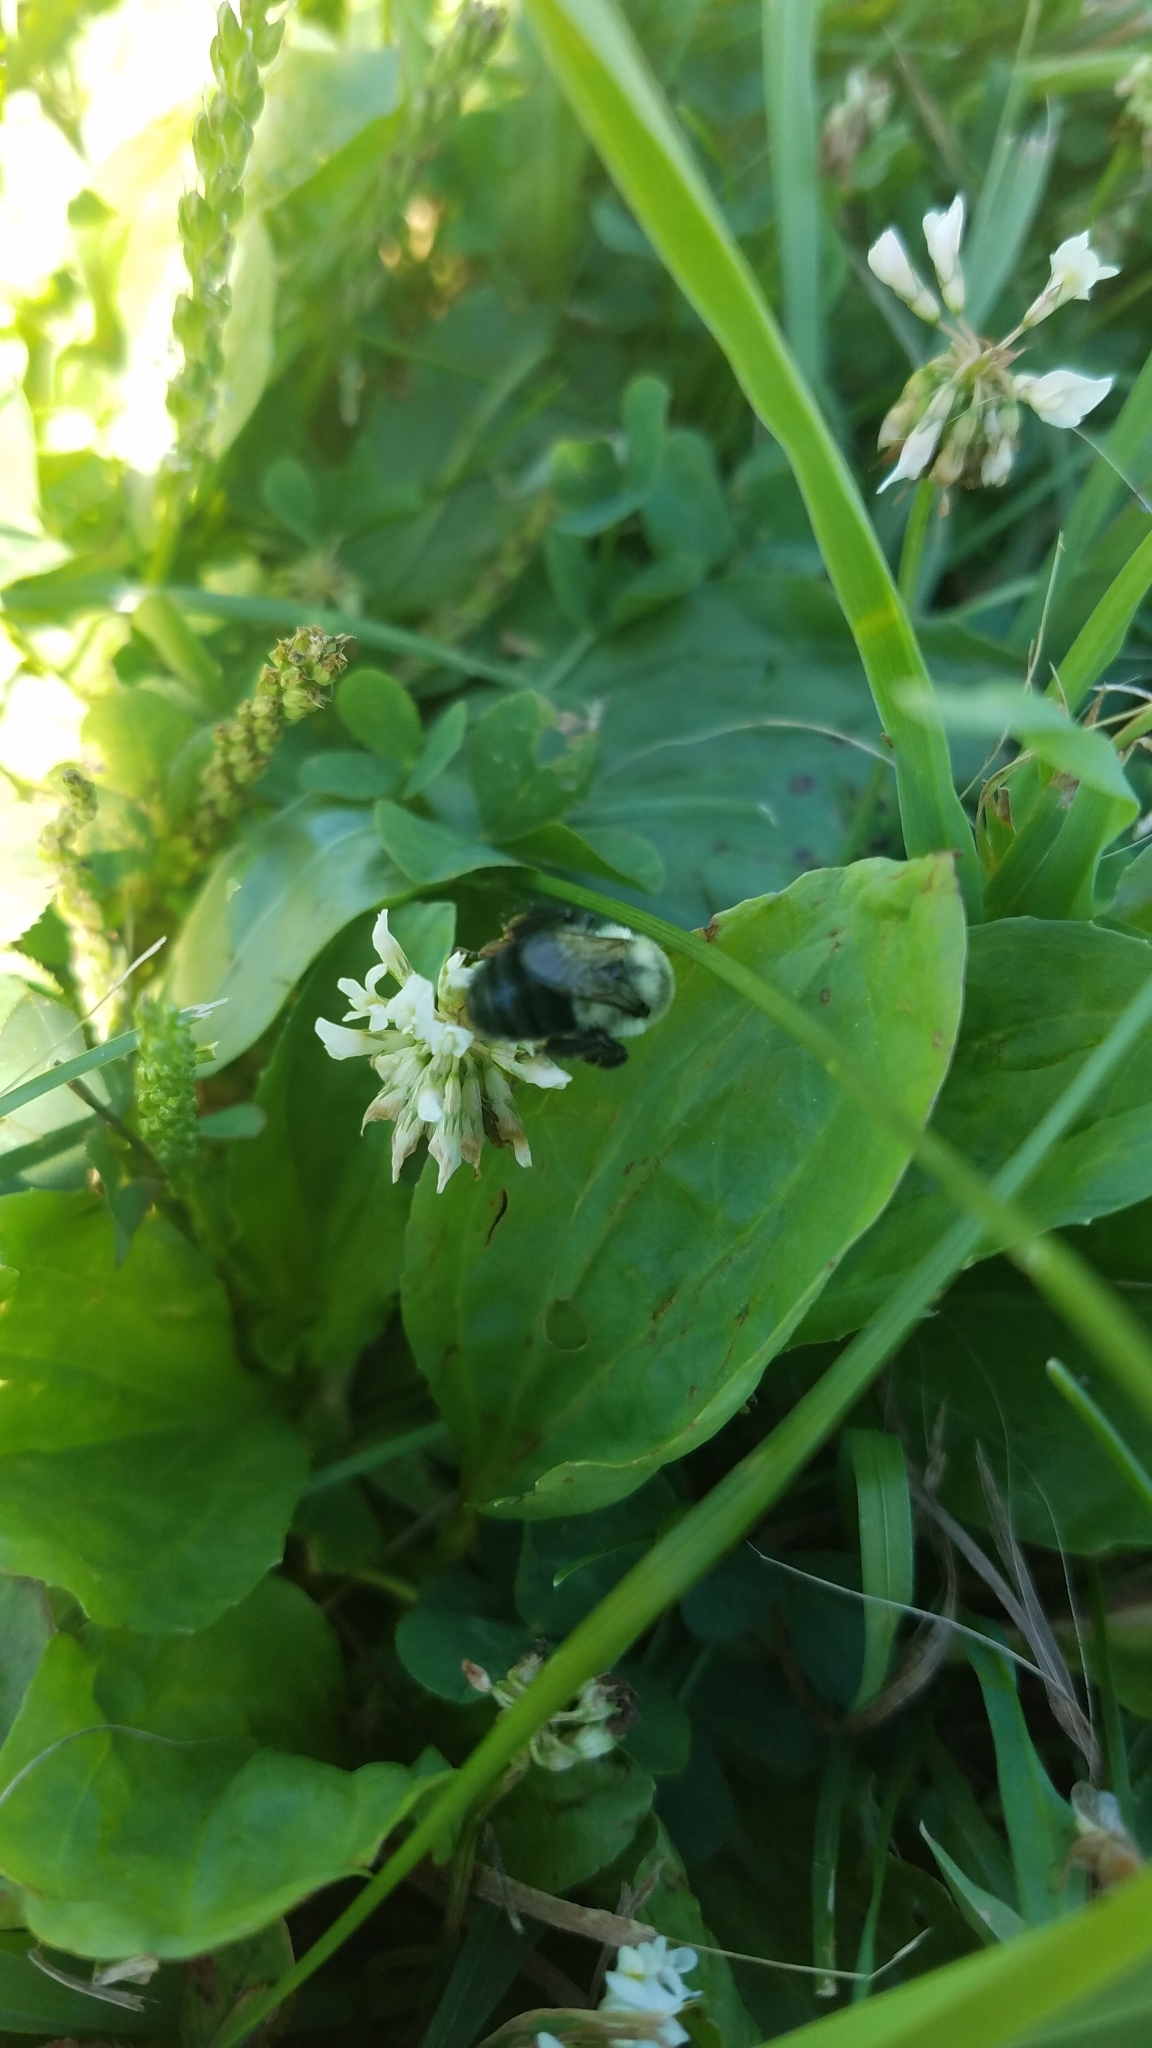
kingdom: Animalia
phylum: Arthropoda
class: Insecta
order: Hymenoptera
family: Apidae
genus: Bombus
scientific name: Bombus impatiens
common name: Common eastern bumble bee
